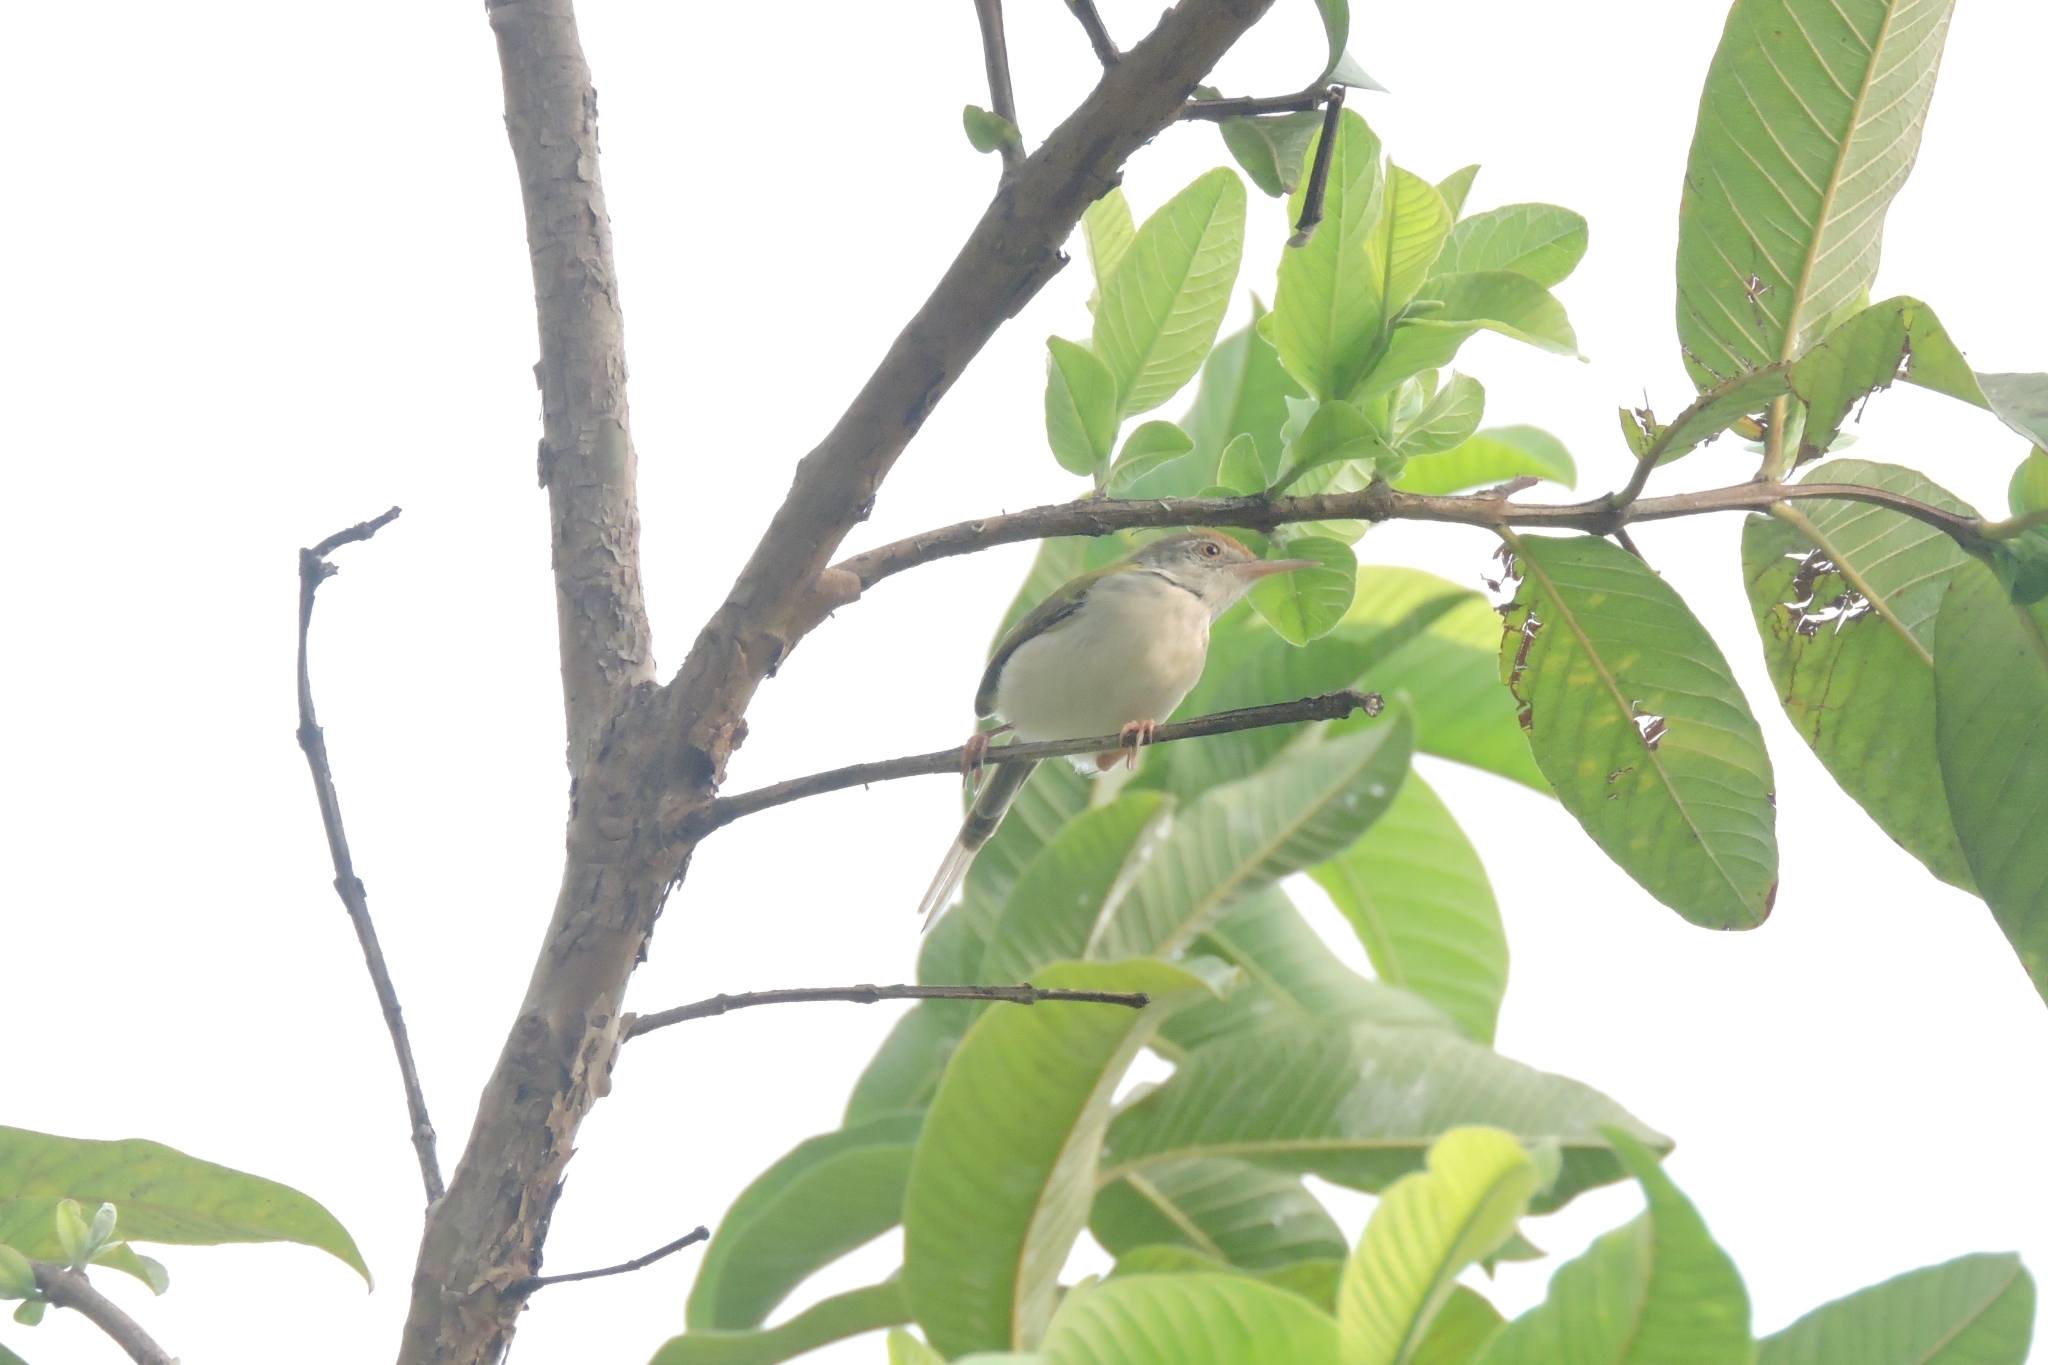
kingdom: Animalia
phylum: Chordata
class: Aves
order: Passeriformes
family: Cisticolidae
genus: Orthotomus
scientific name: Orthotomus sutorius
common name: Common tailorbird
